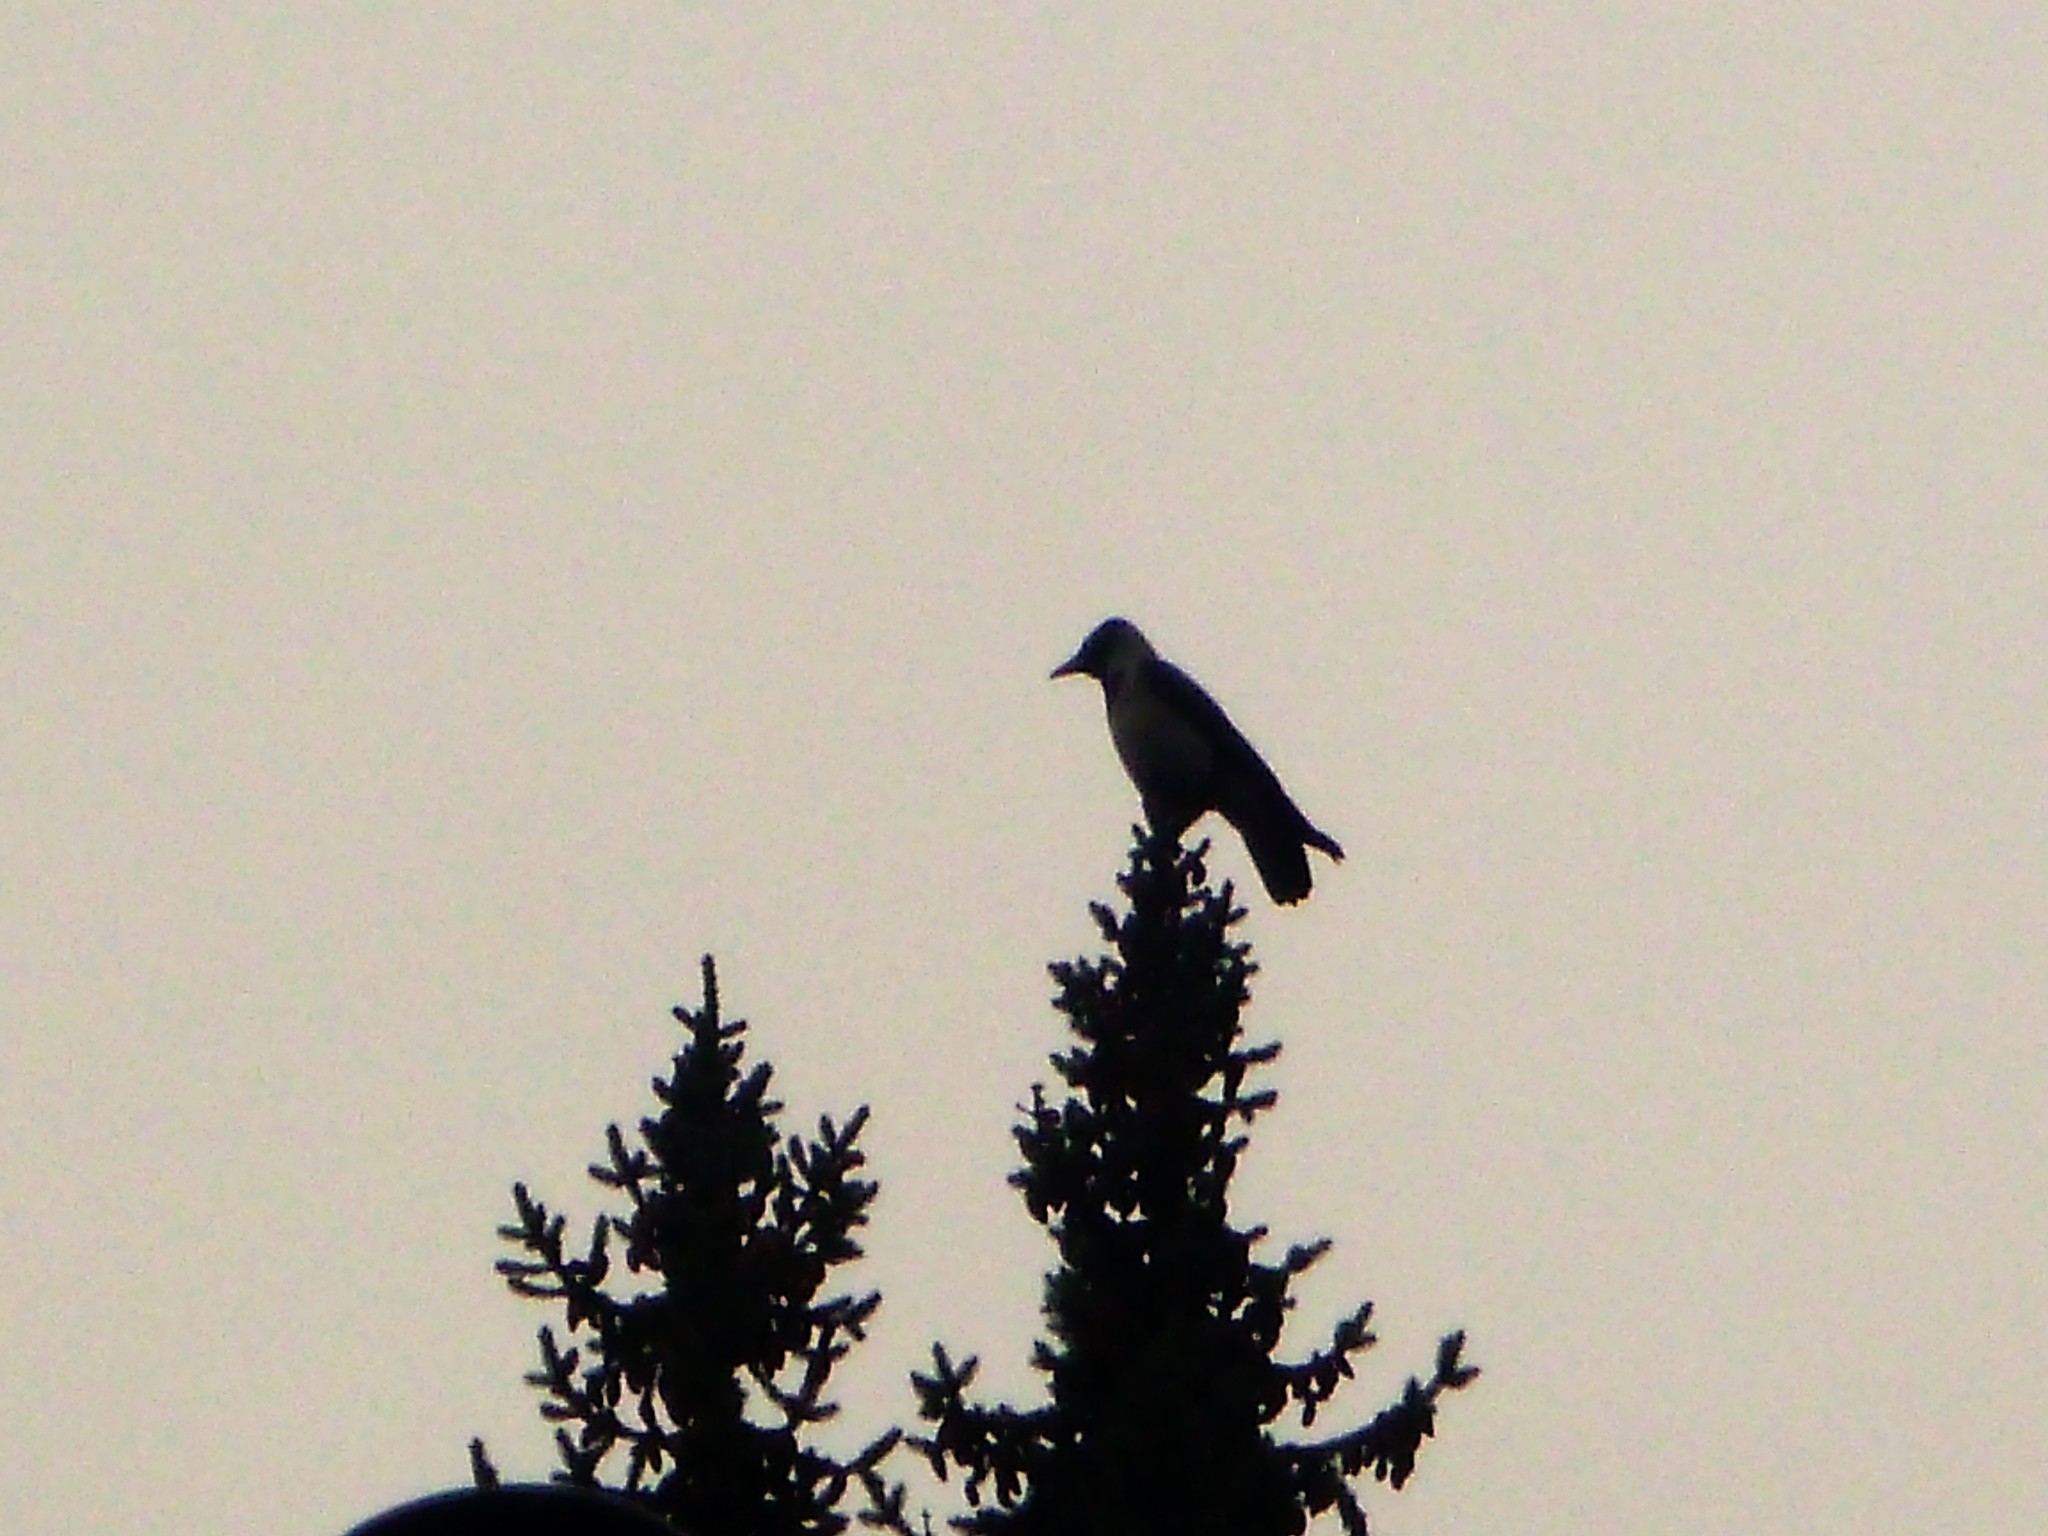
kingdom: Animalia
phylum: Chordata
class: Aves
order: Passeriformes
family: Corvidae
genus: Corvus
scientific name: Corvus cornix
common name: Hooded crow
